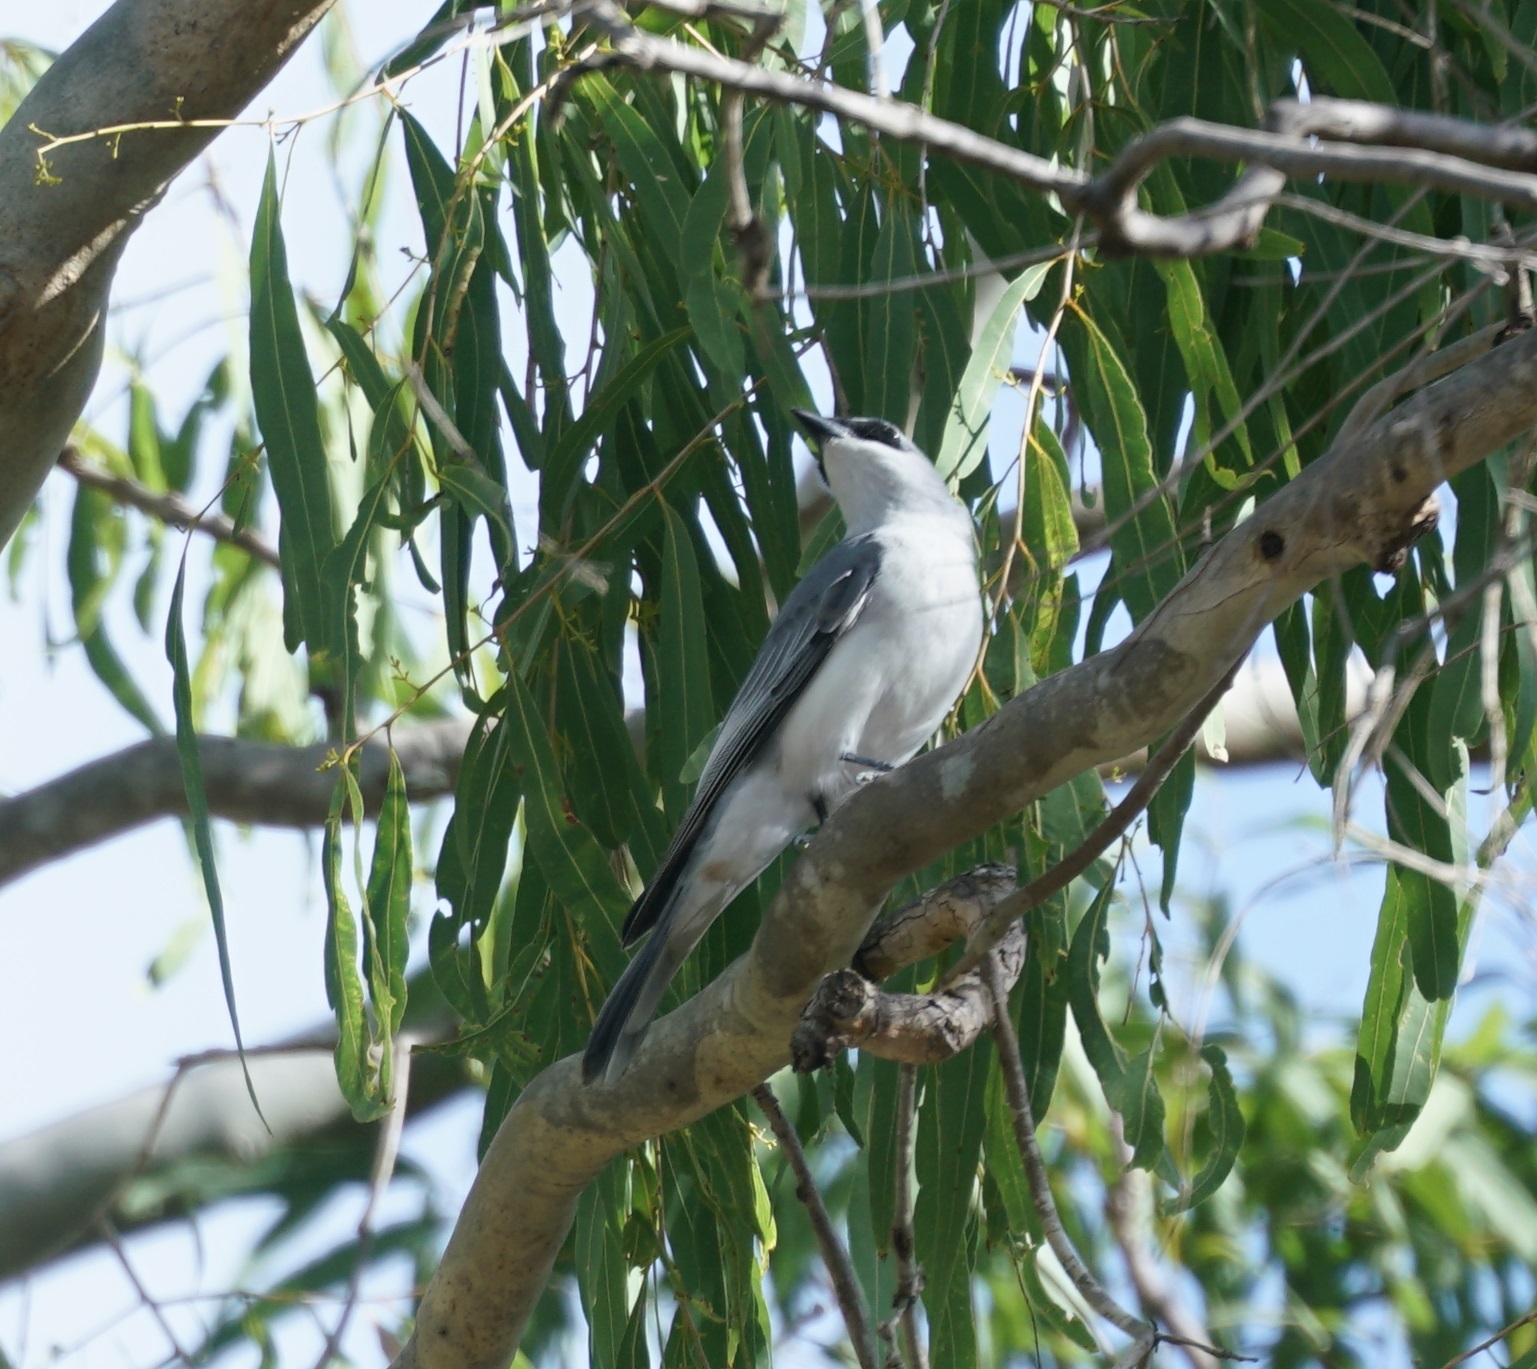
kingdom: Animalia
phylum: Chordata
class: Aves
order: Passeriformes
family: Campephagidae
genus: Coracina
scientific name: Coracina papuensis
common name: White-bellied cuckooshrike
